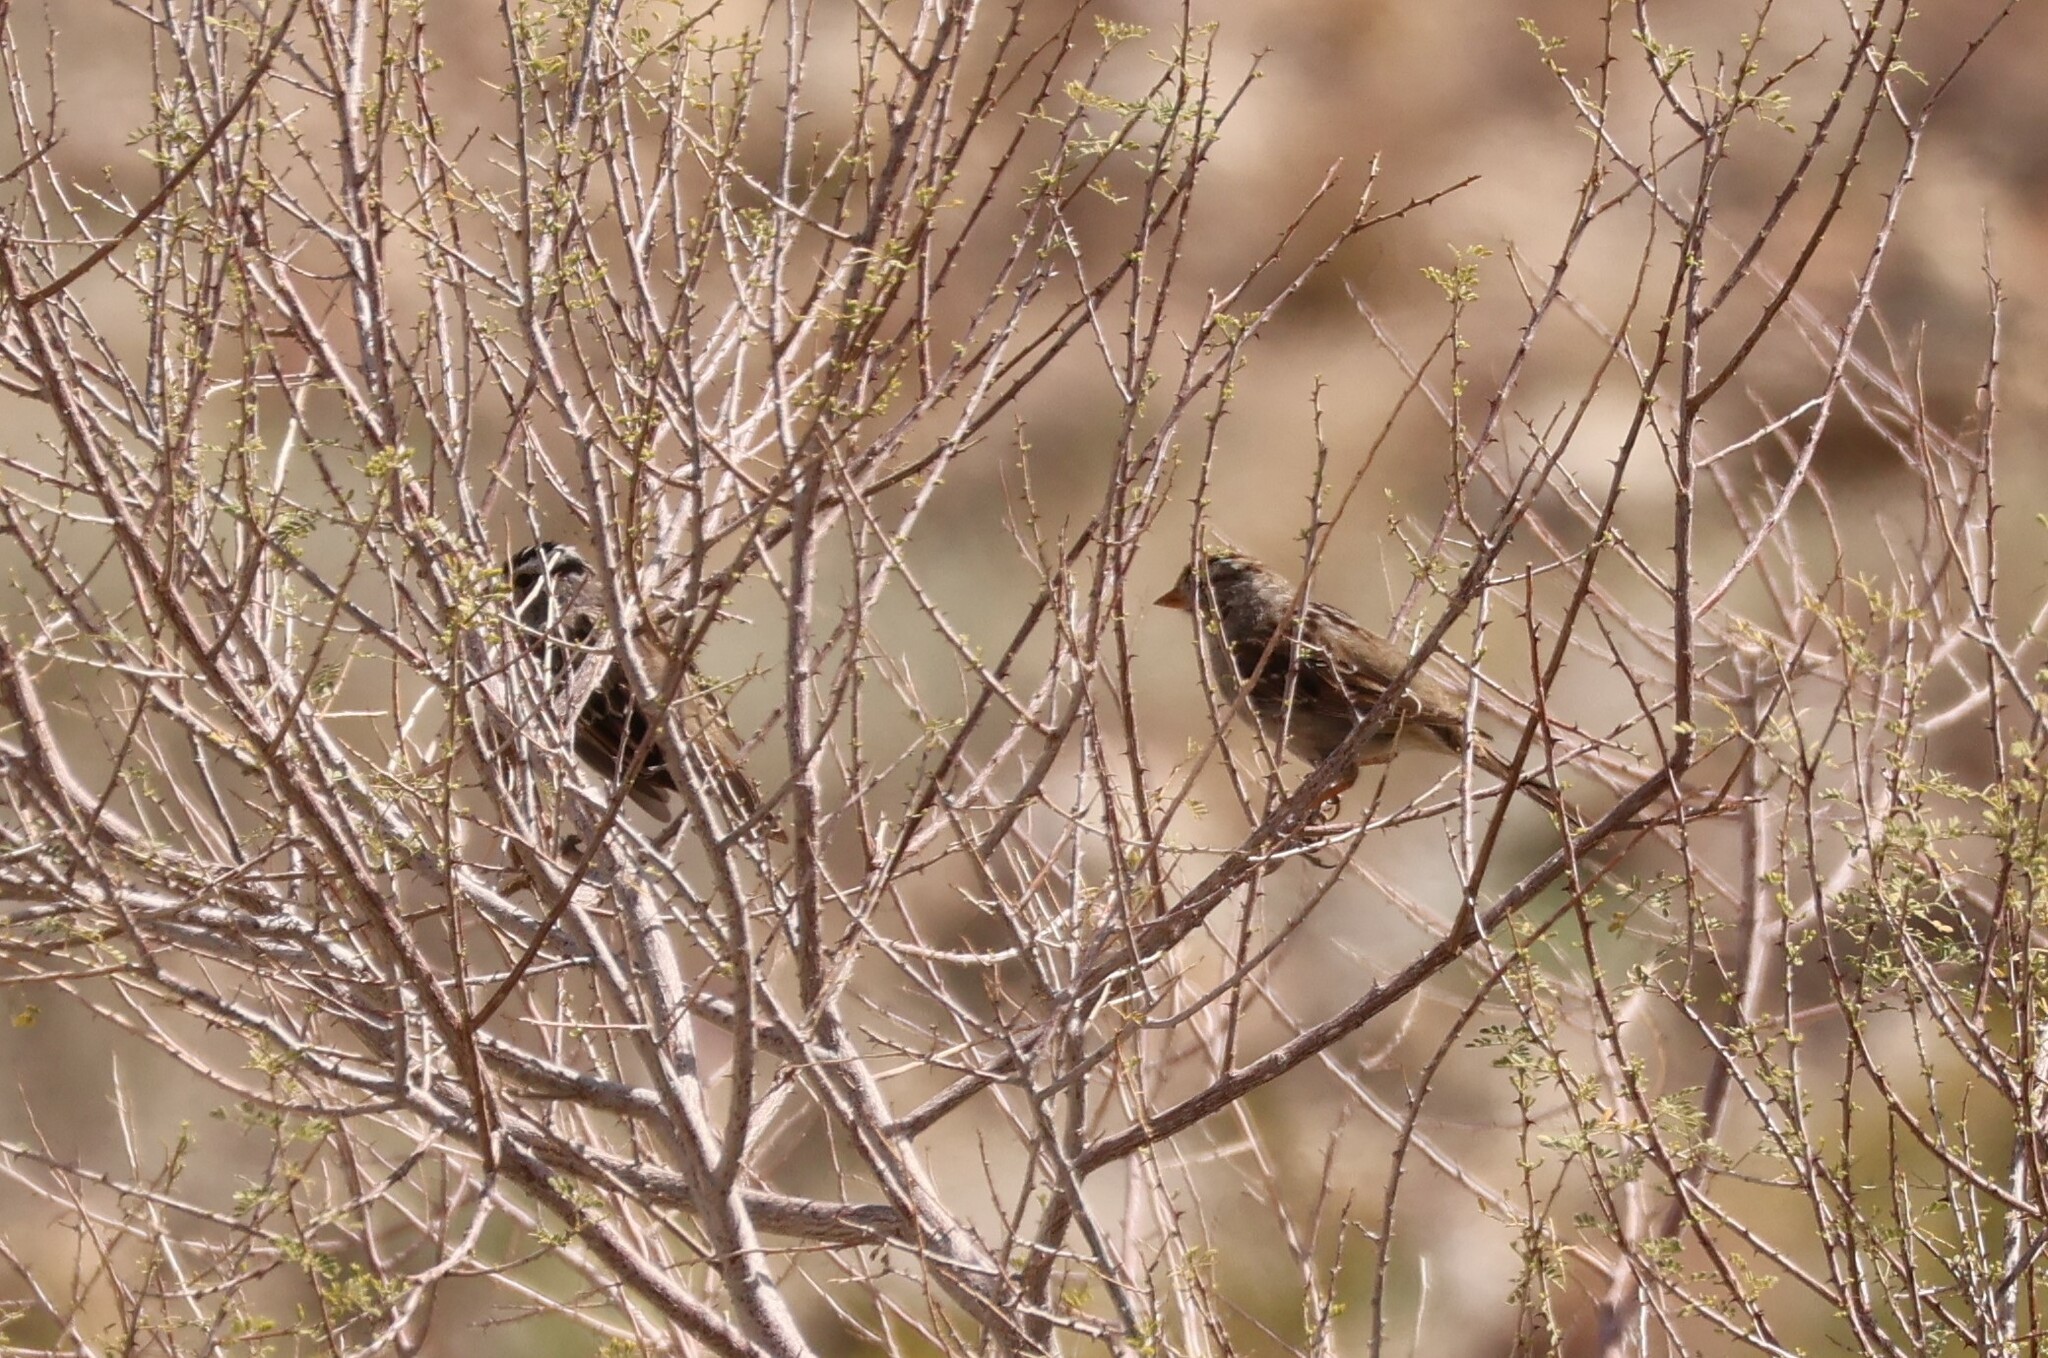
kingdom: Animalia
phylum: Chordata
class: Aves
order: Passeriformes
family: Passerellidae
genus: Zonotrichia
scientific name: Zonotrichia leucophrys
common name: White-crowned sparrow
